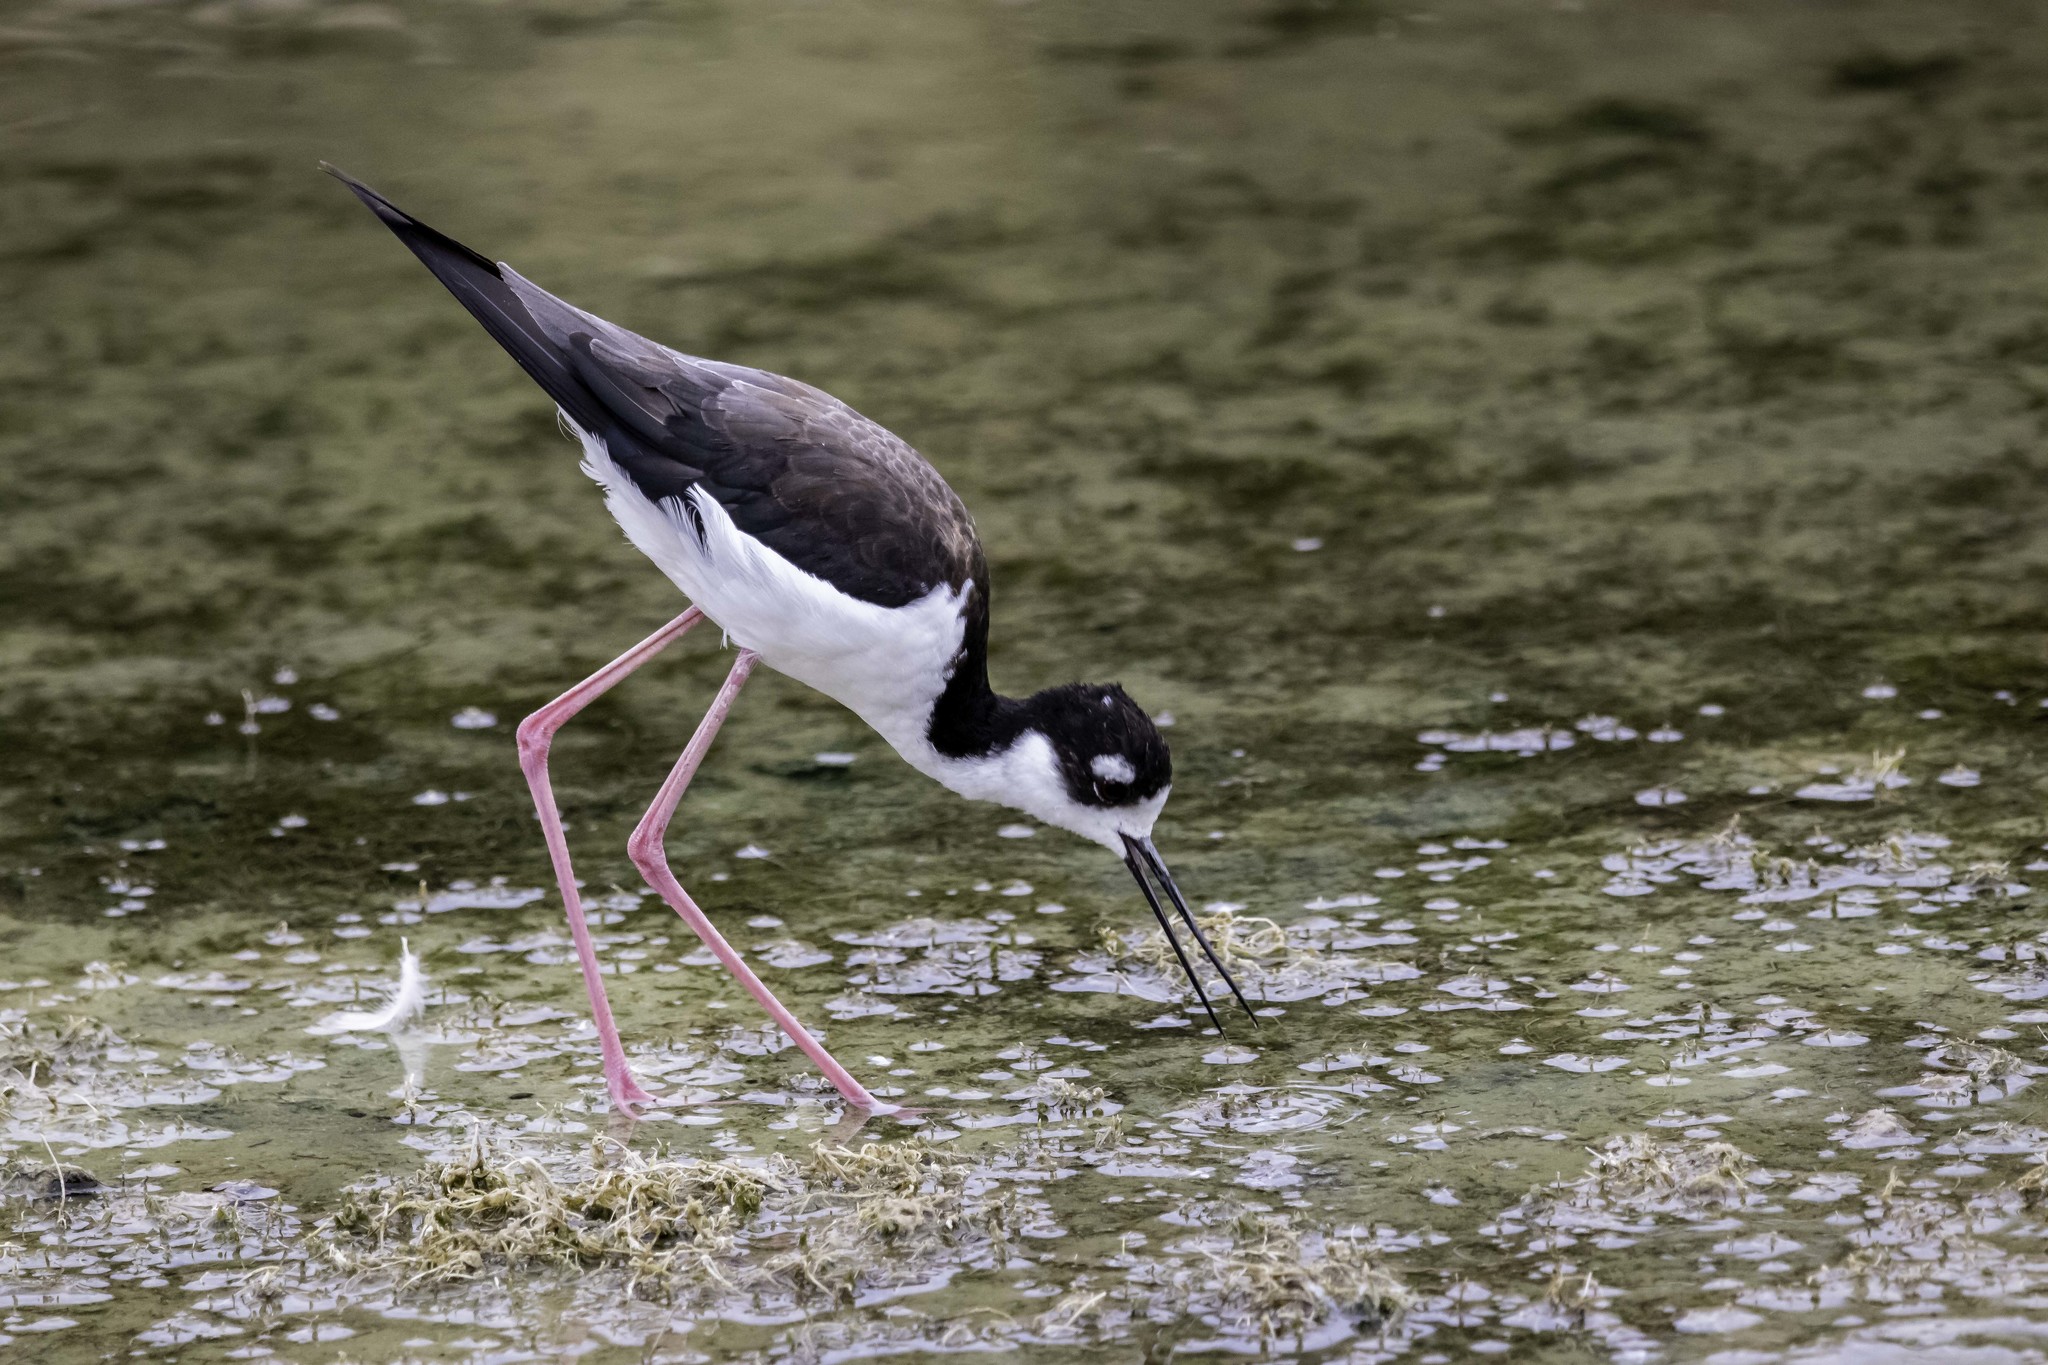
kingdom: Animalia
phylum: Chordata
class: Aves
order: Charadriiformes
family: Recurvirostridae
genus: Himantopus
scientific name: Himantopus mexicanus
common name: Black-necked stilt
